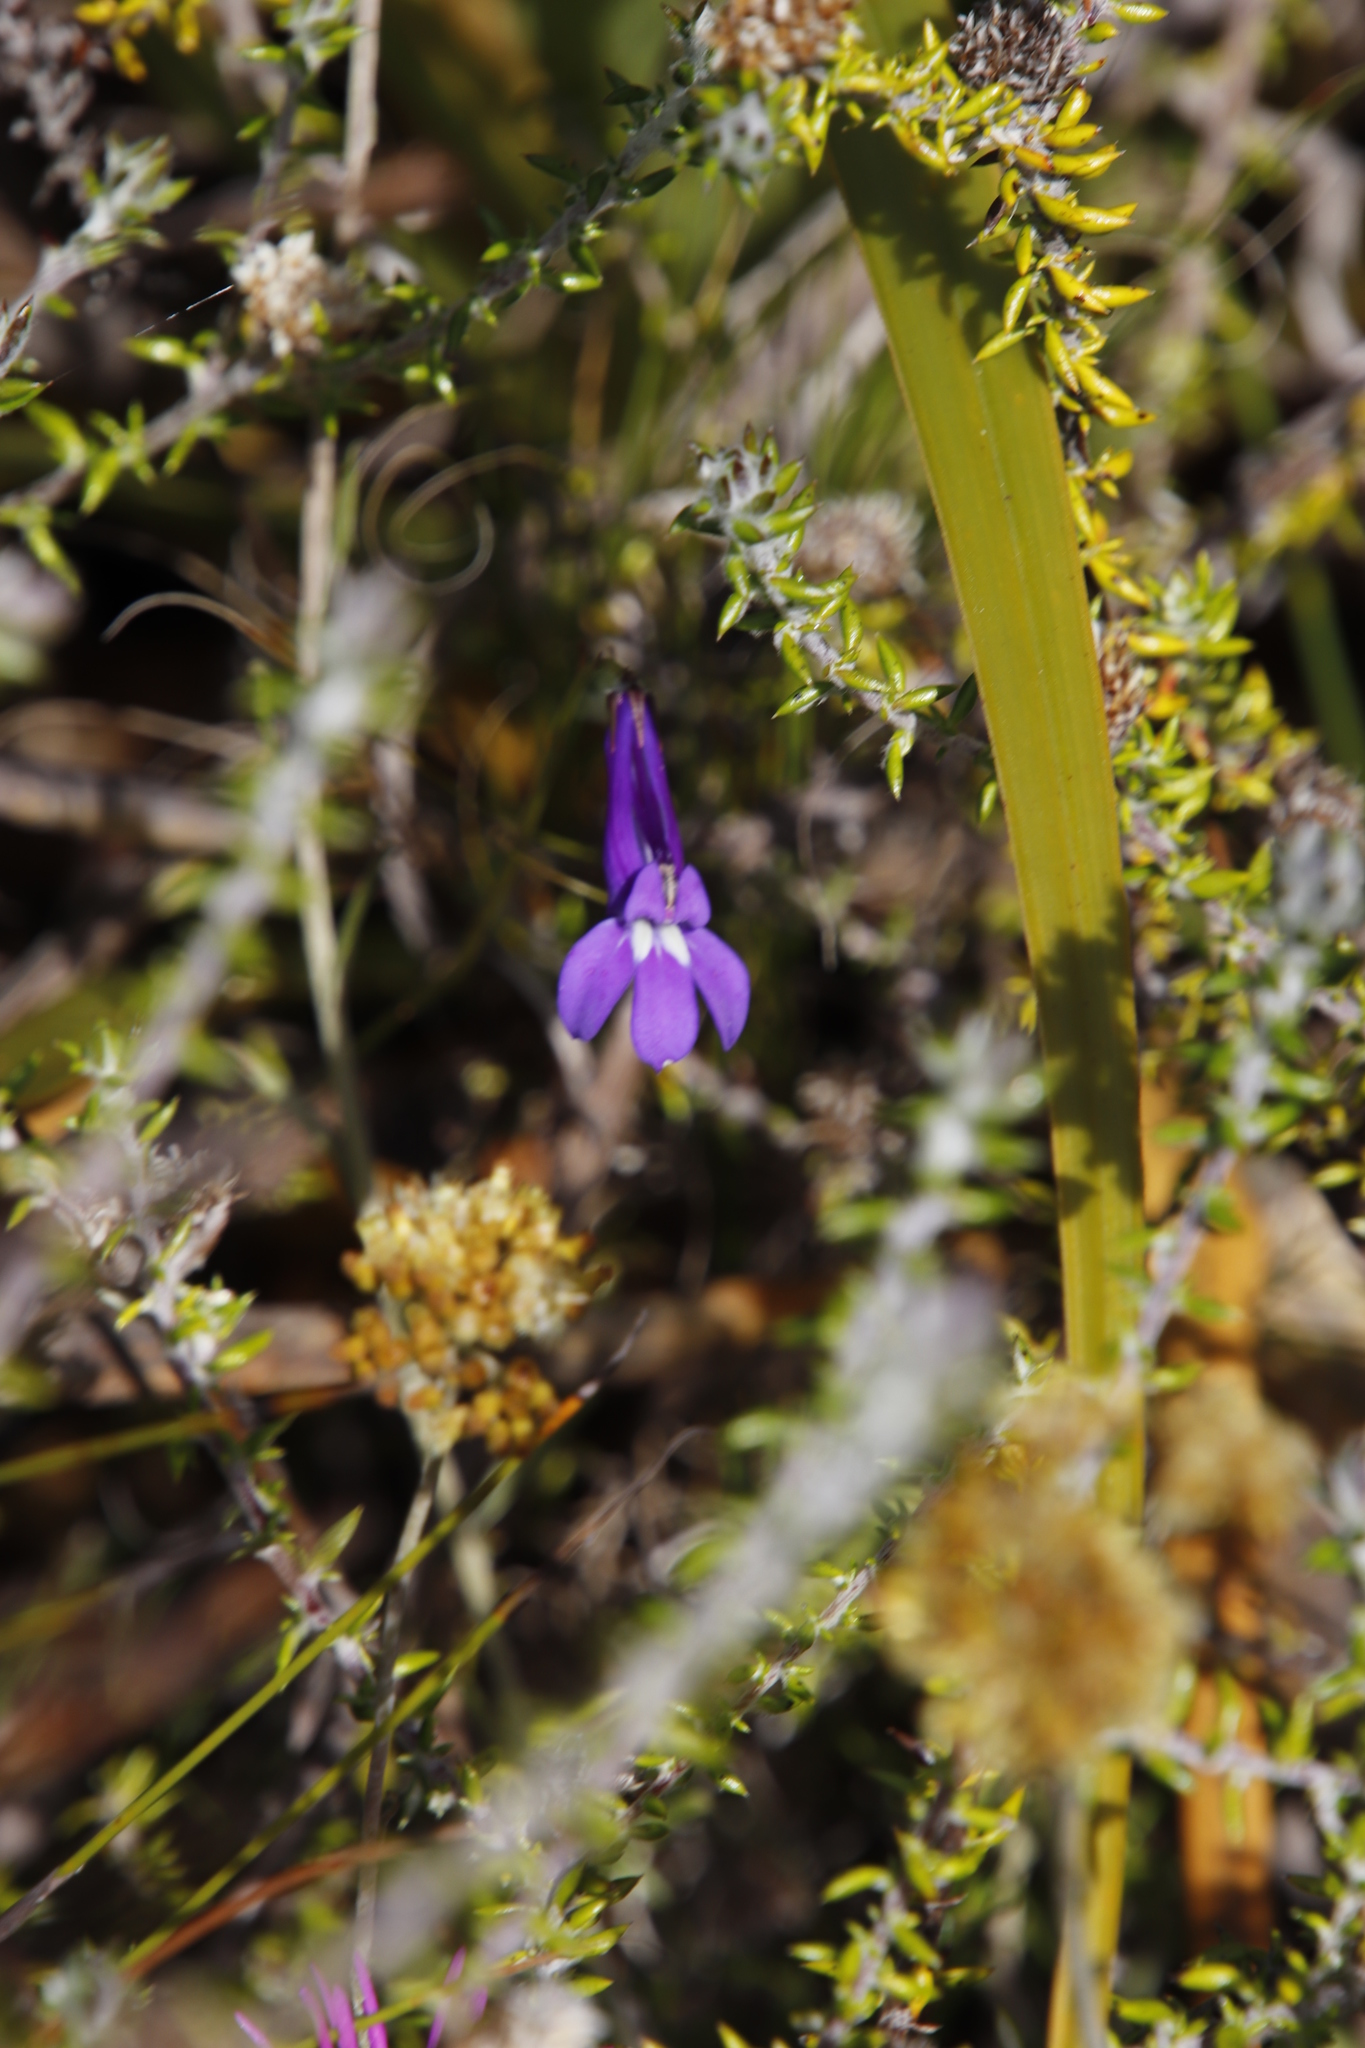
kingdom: Plantae
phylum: Tracheophyta
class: Magnoliopsida
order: Asterales
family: Campanulaceae
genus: Lobelia
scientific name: Lobelia coronopifolia
